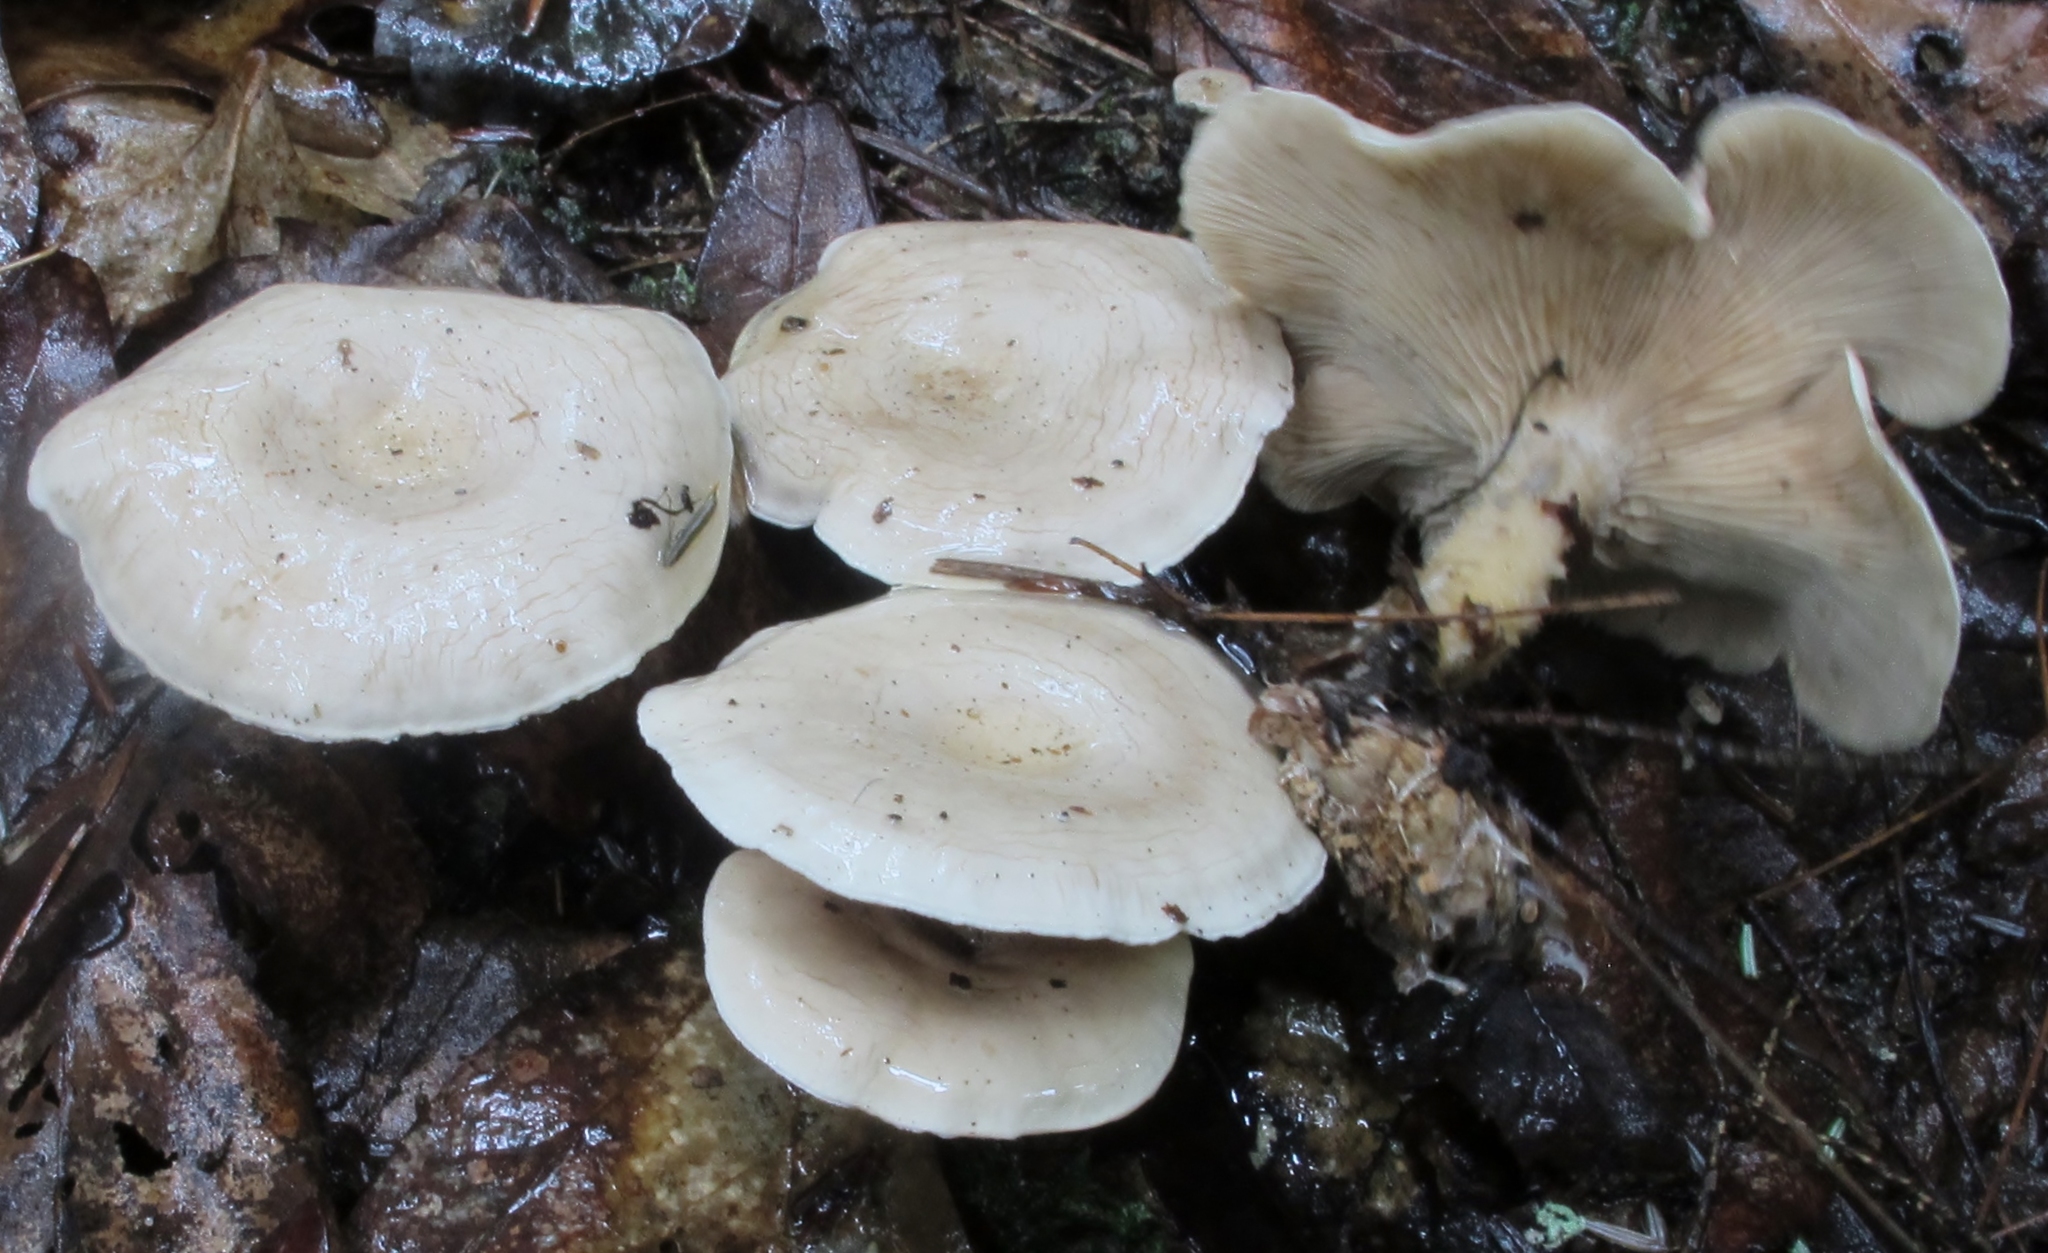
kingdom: Fungi
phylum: Basidiomycota
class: Agaricomycetes
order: Agaricales
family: Tricholomataceae
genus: Lulesia
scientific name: Lulesia
